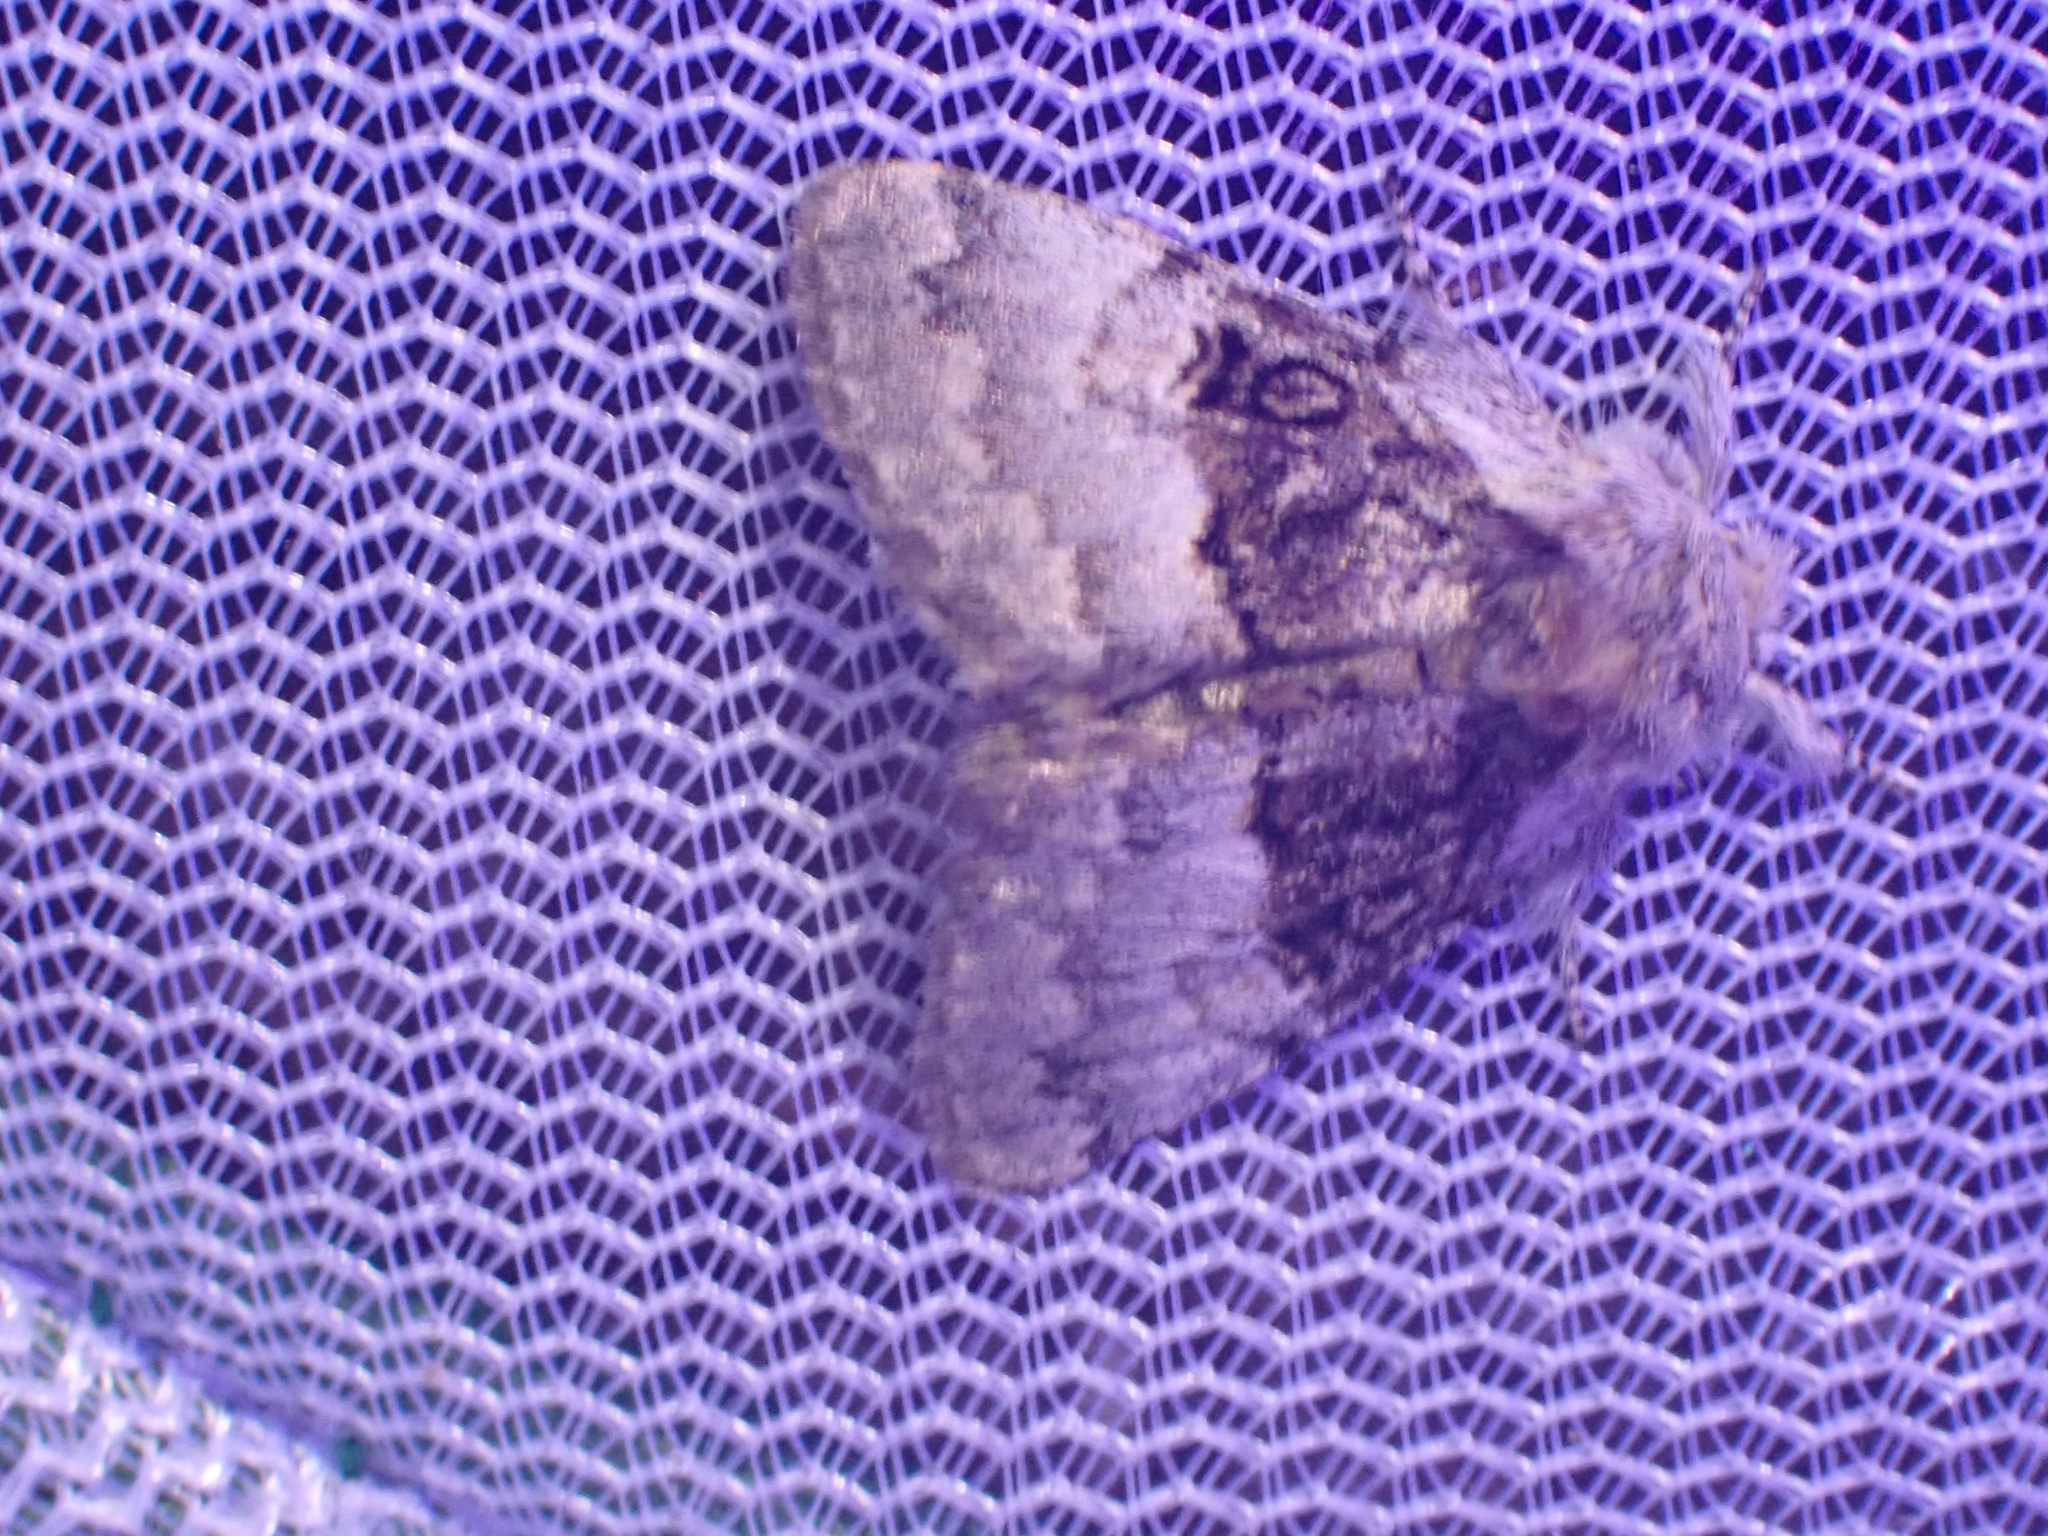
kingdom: Animalia
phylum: Arthropoda
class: Insecta
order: Lepidoptera
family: Noctuidae
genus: Colocasia
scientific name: Colocasia coryli
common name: Nut-tree tussock
